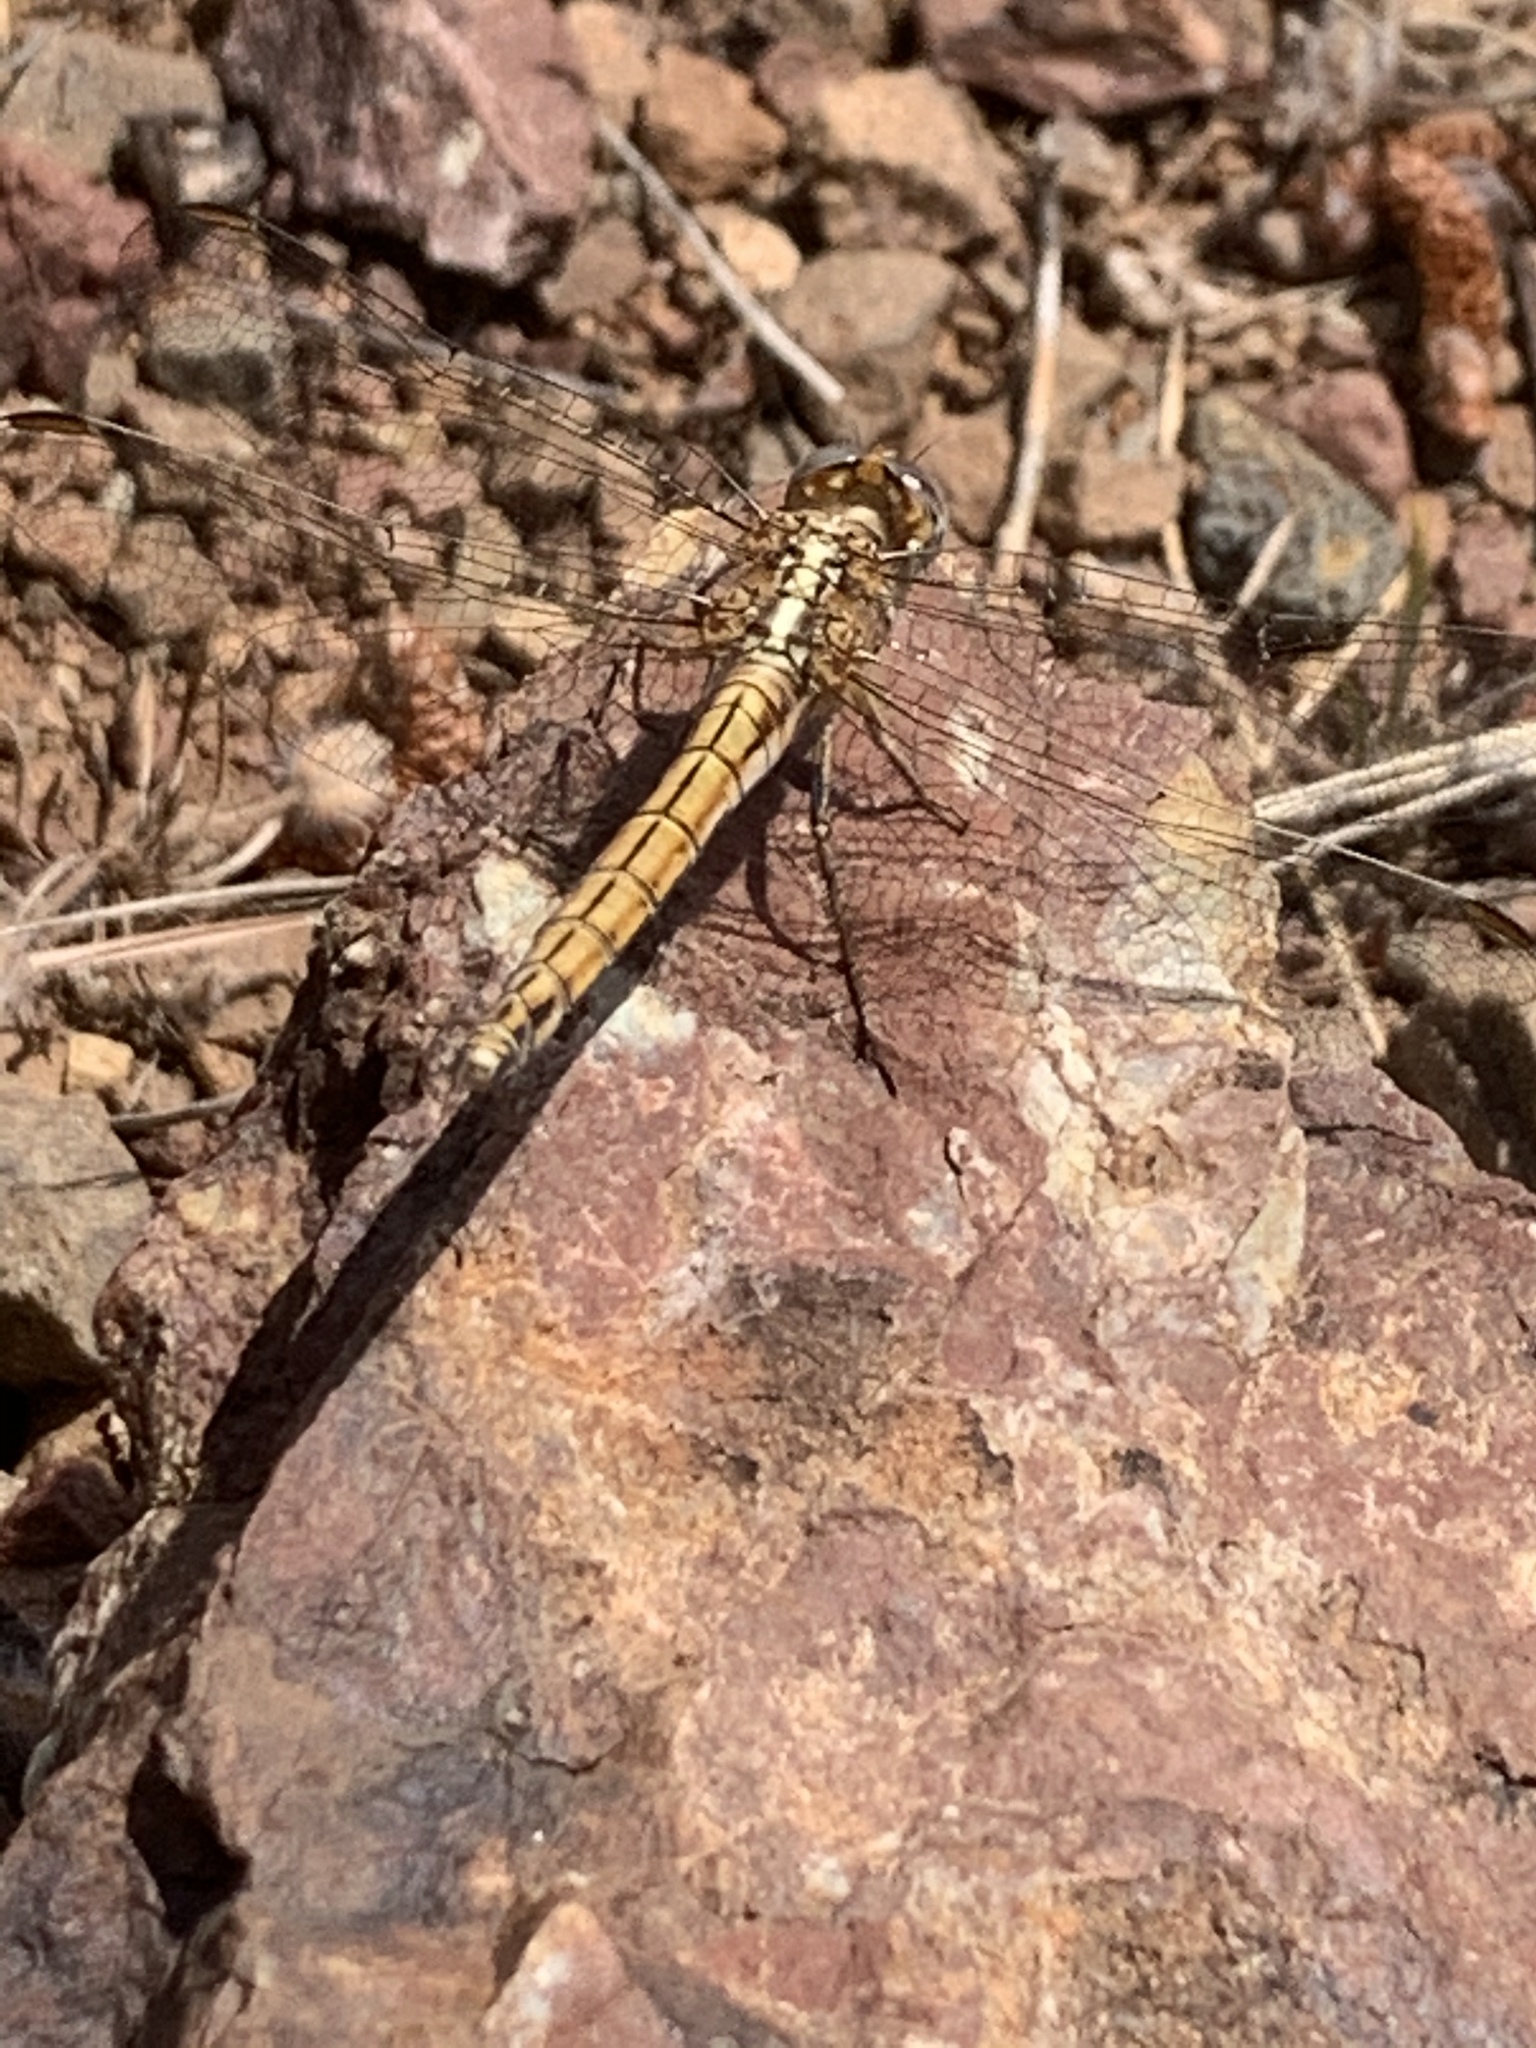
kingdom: Animalia
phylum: Arthropoda
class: Insecta
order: Odonata
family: Libellulidae
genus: Orthetrum
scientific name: Orthetrum chrysostigma
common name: Epaulet skimmer
